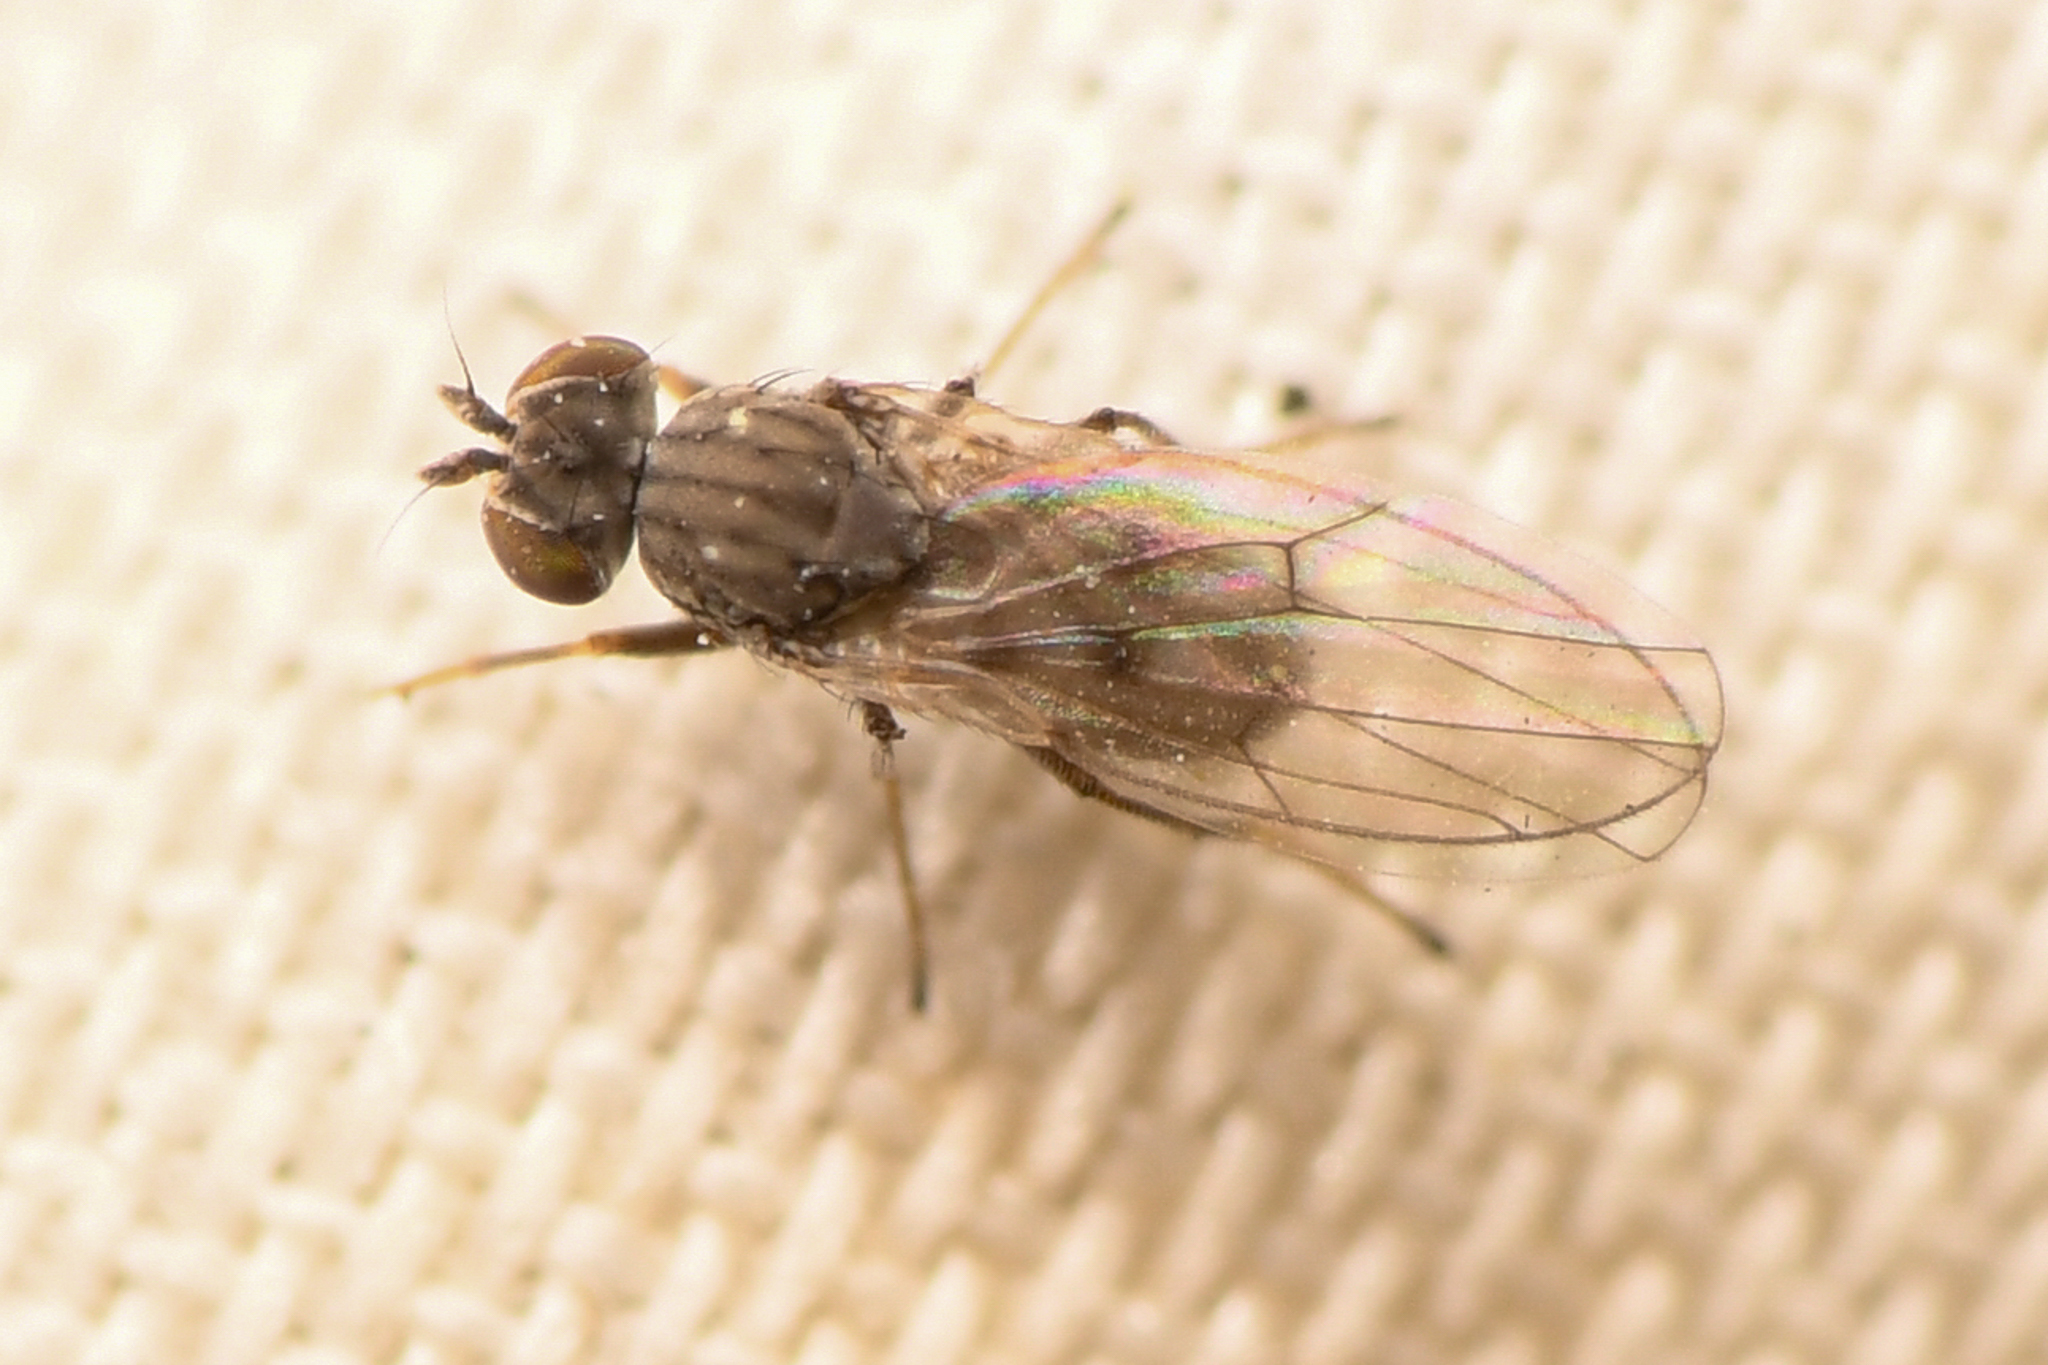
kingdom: Animalia
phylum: Arthropoda
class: Insecta
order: Diptera
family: Ephydridae
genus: Philygria
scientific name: Philygria debilis
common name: Brine fly
